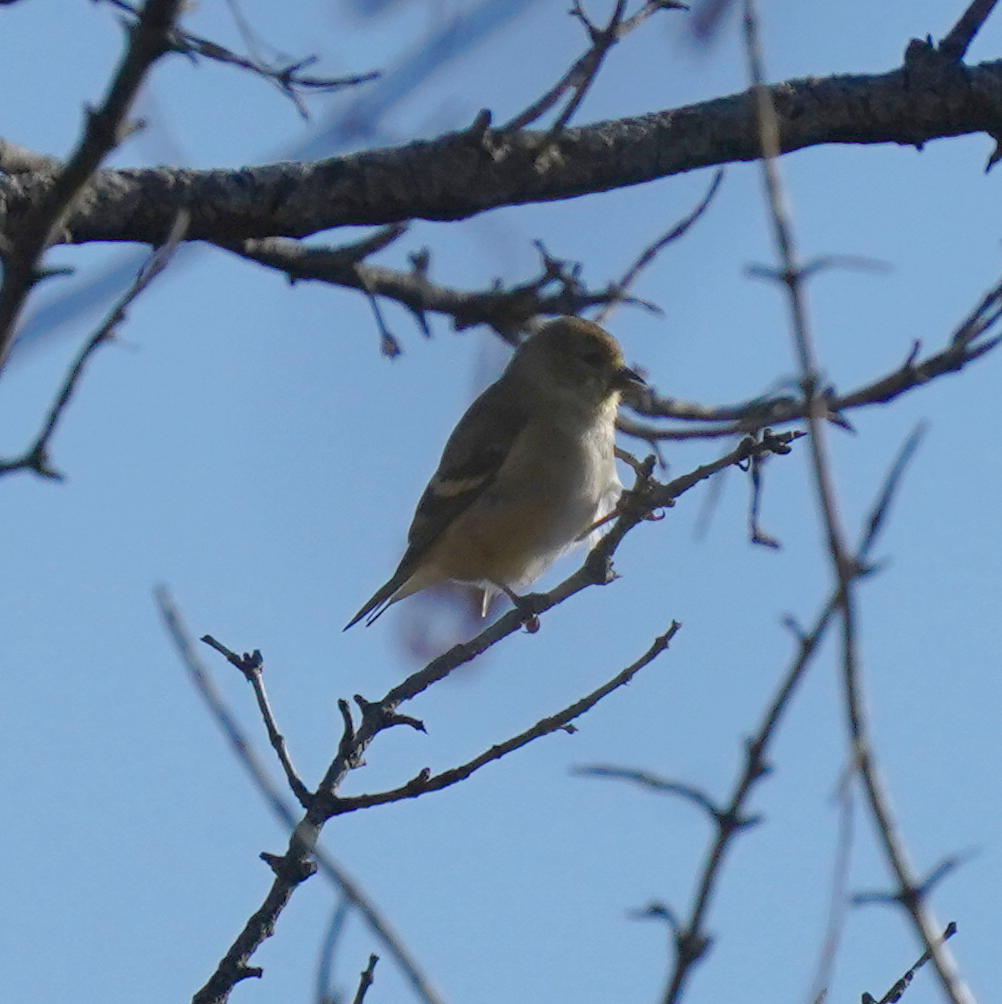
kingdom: Animalia
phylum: Chordata
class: Aves
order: Passeriformes
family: Fringillidae
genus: Spinus
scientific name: Spinus tristis
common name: American goldfinch
